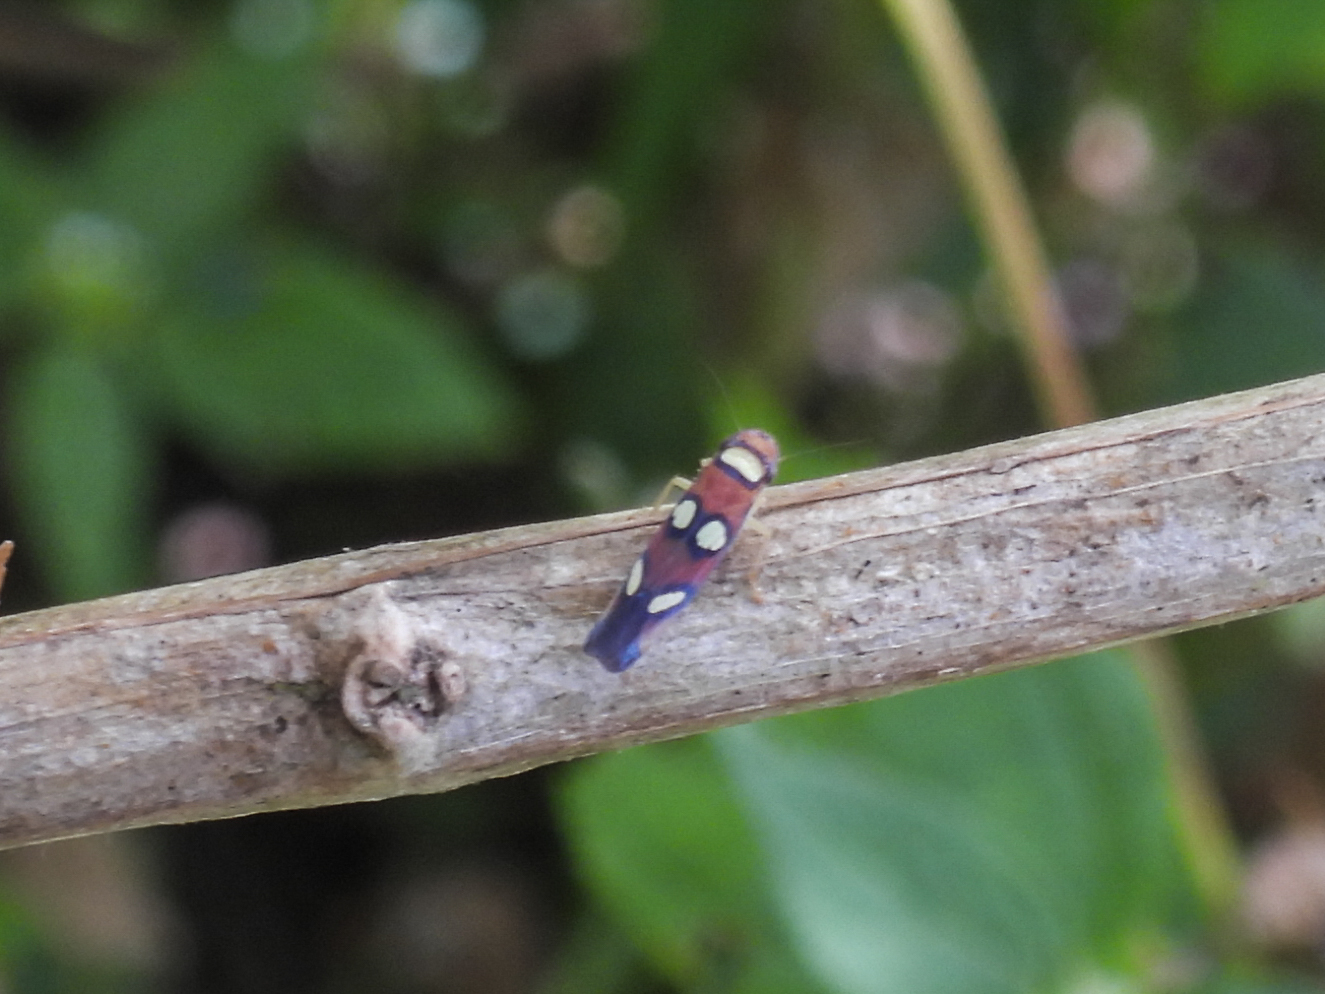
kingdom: Animalia
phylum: Arthropoda
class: Insecta
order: Hemiptera
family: Cicadellidae
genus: Erythrogonia
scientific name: Erythrogonia areolata
